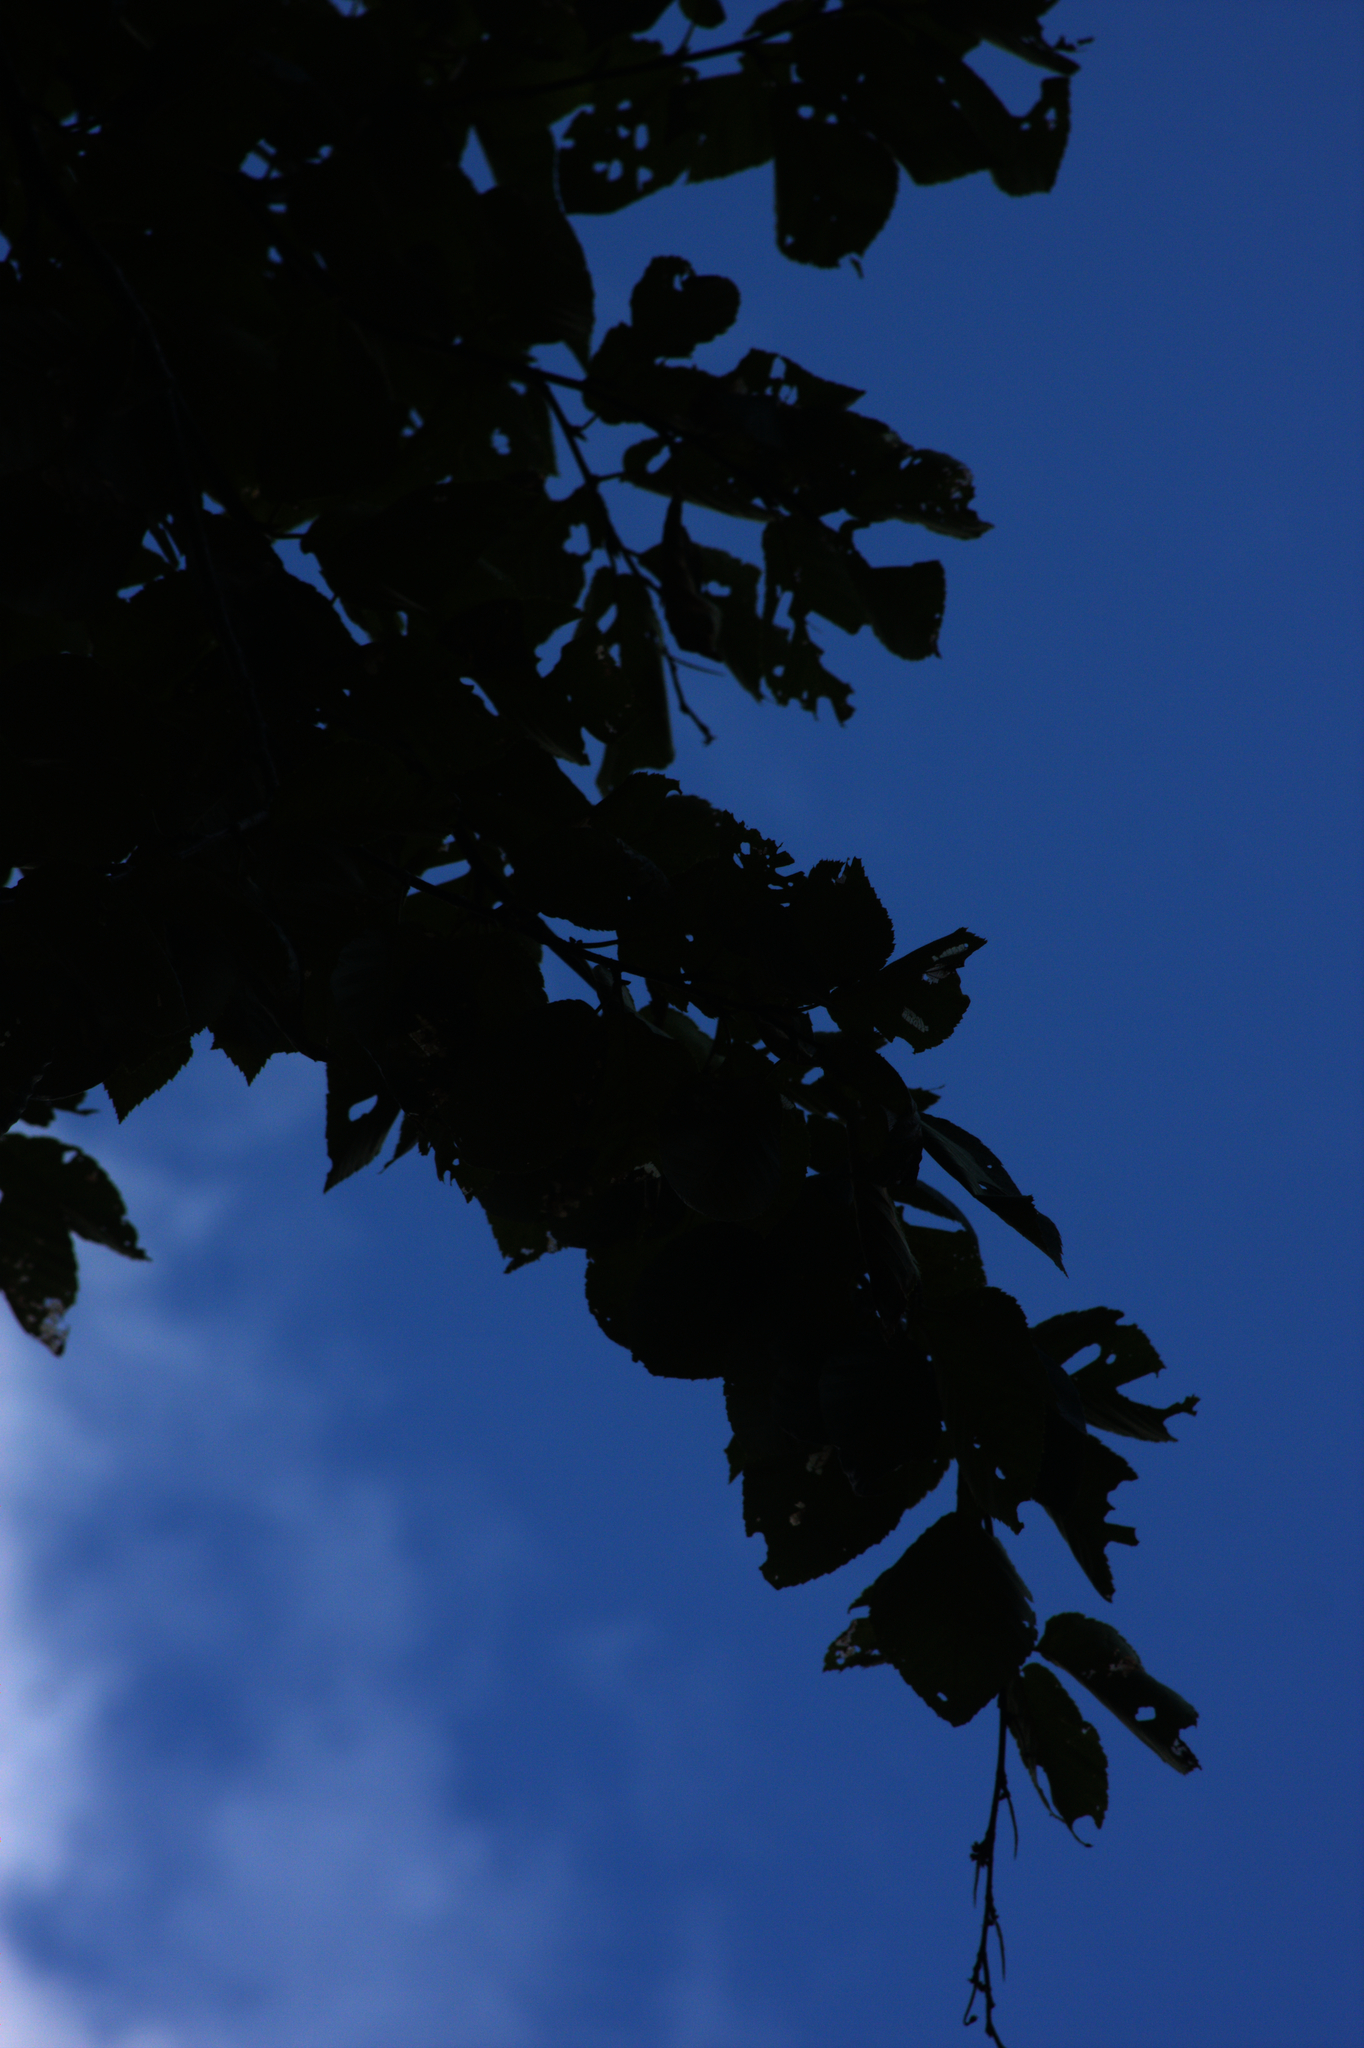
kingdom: Plantae
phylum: Tracheophyta
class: Magnoliopsida
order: Fagales
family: Betulaceae
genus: Betula
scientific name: Betula alleghaniensis
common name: Yellow birch
